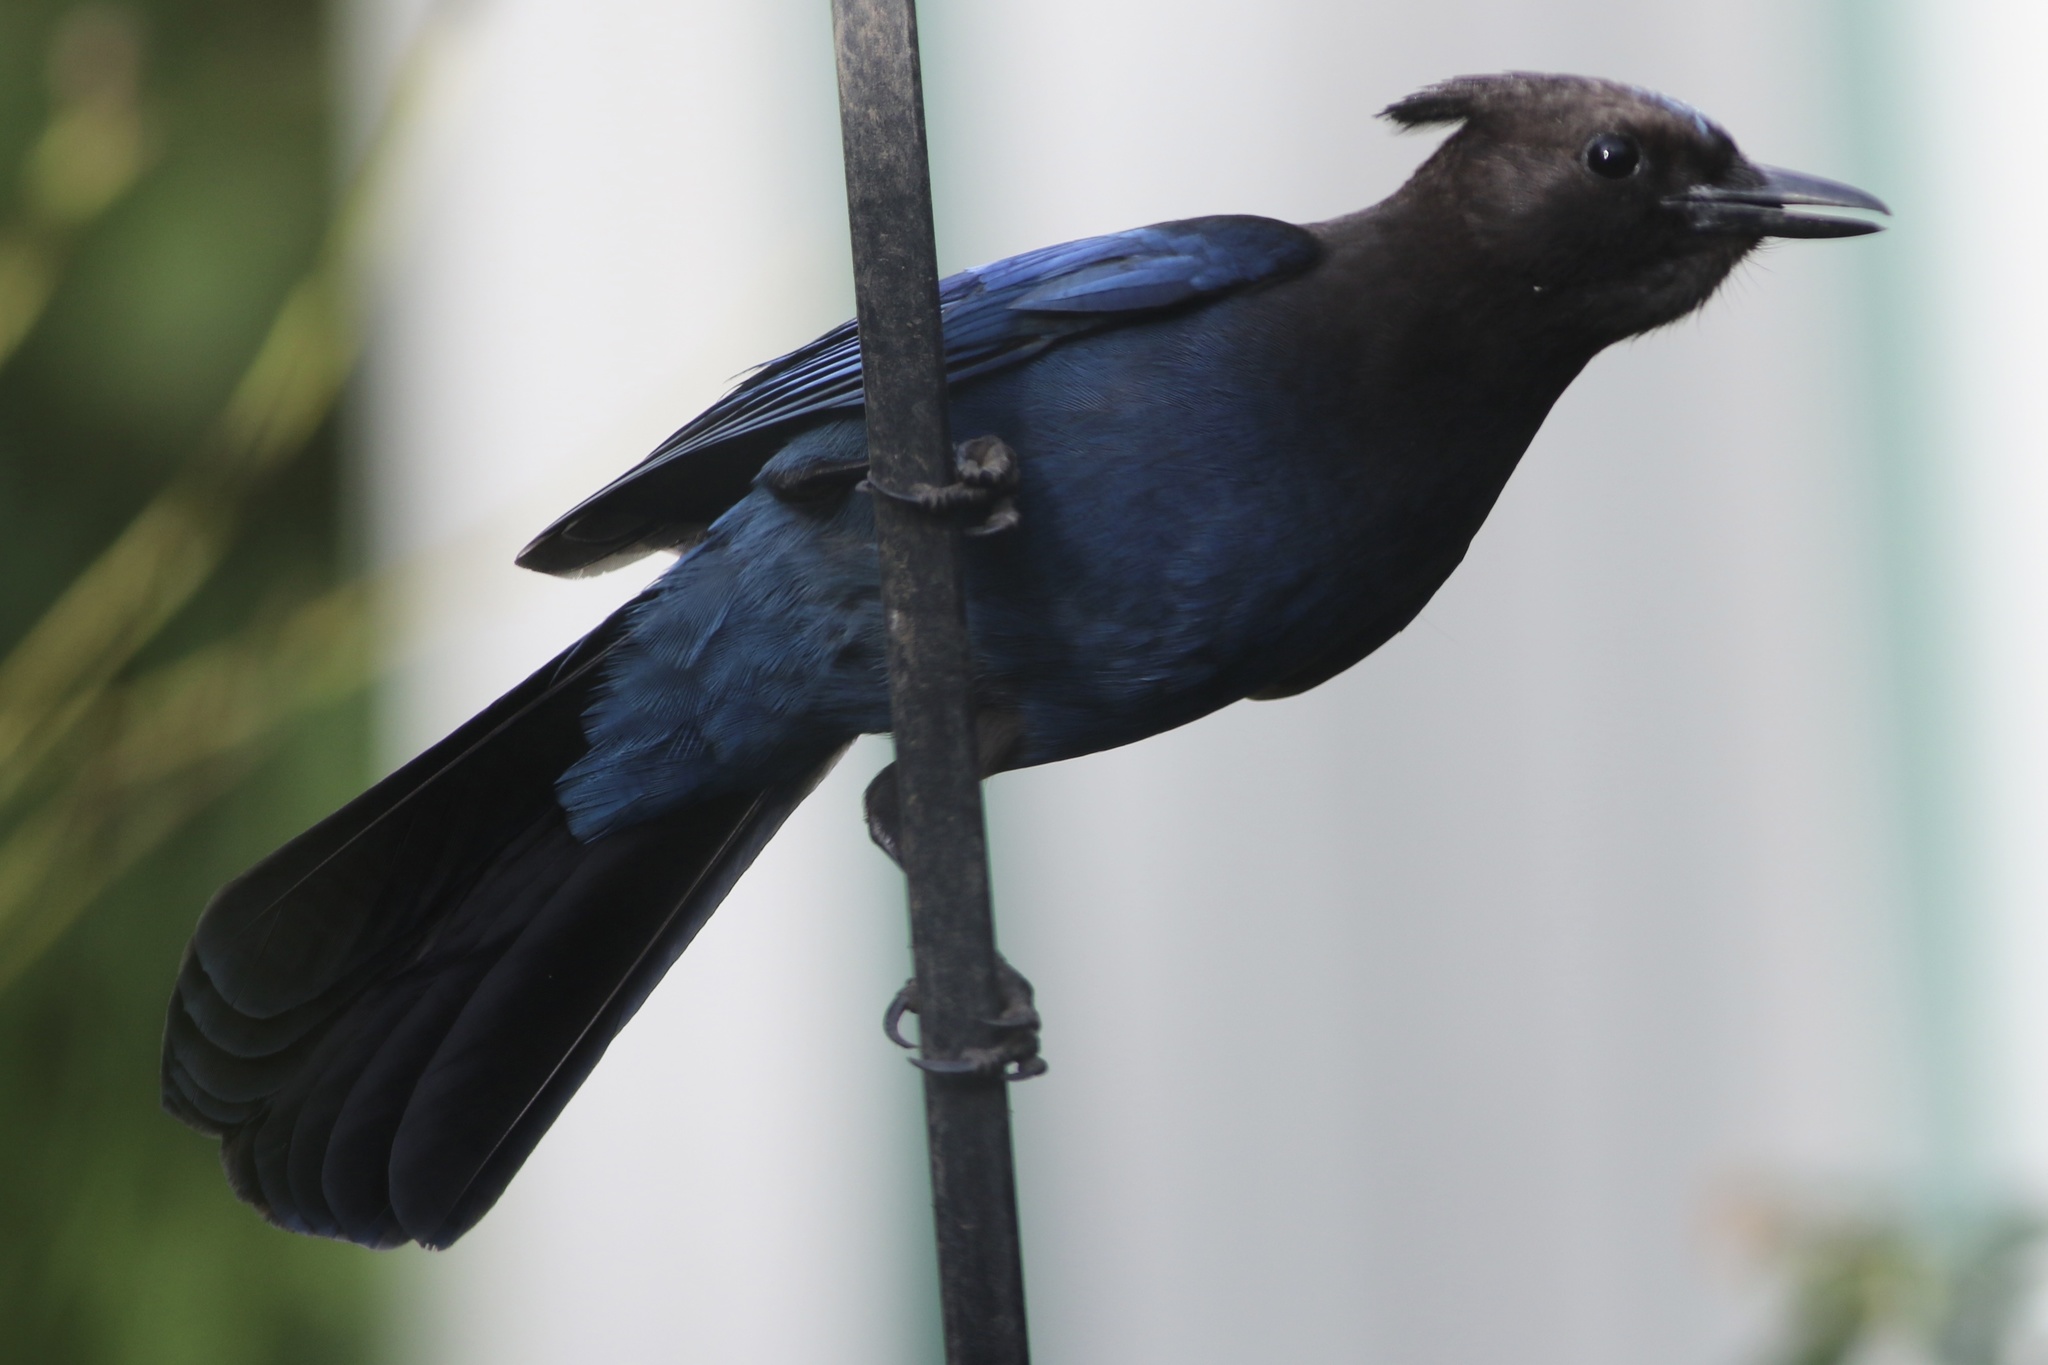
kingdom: Animalia
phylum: Chordata
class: Aves
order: Passeriformes
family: Corvidae
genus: Cyanocitta
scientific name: Cyanocitta stelleri
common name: Steller's jay
